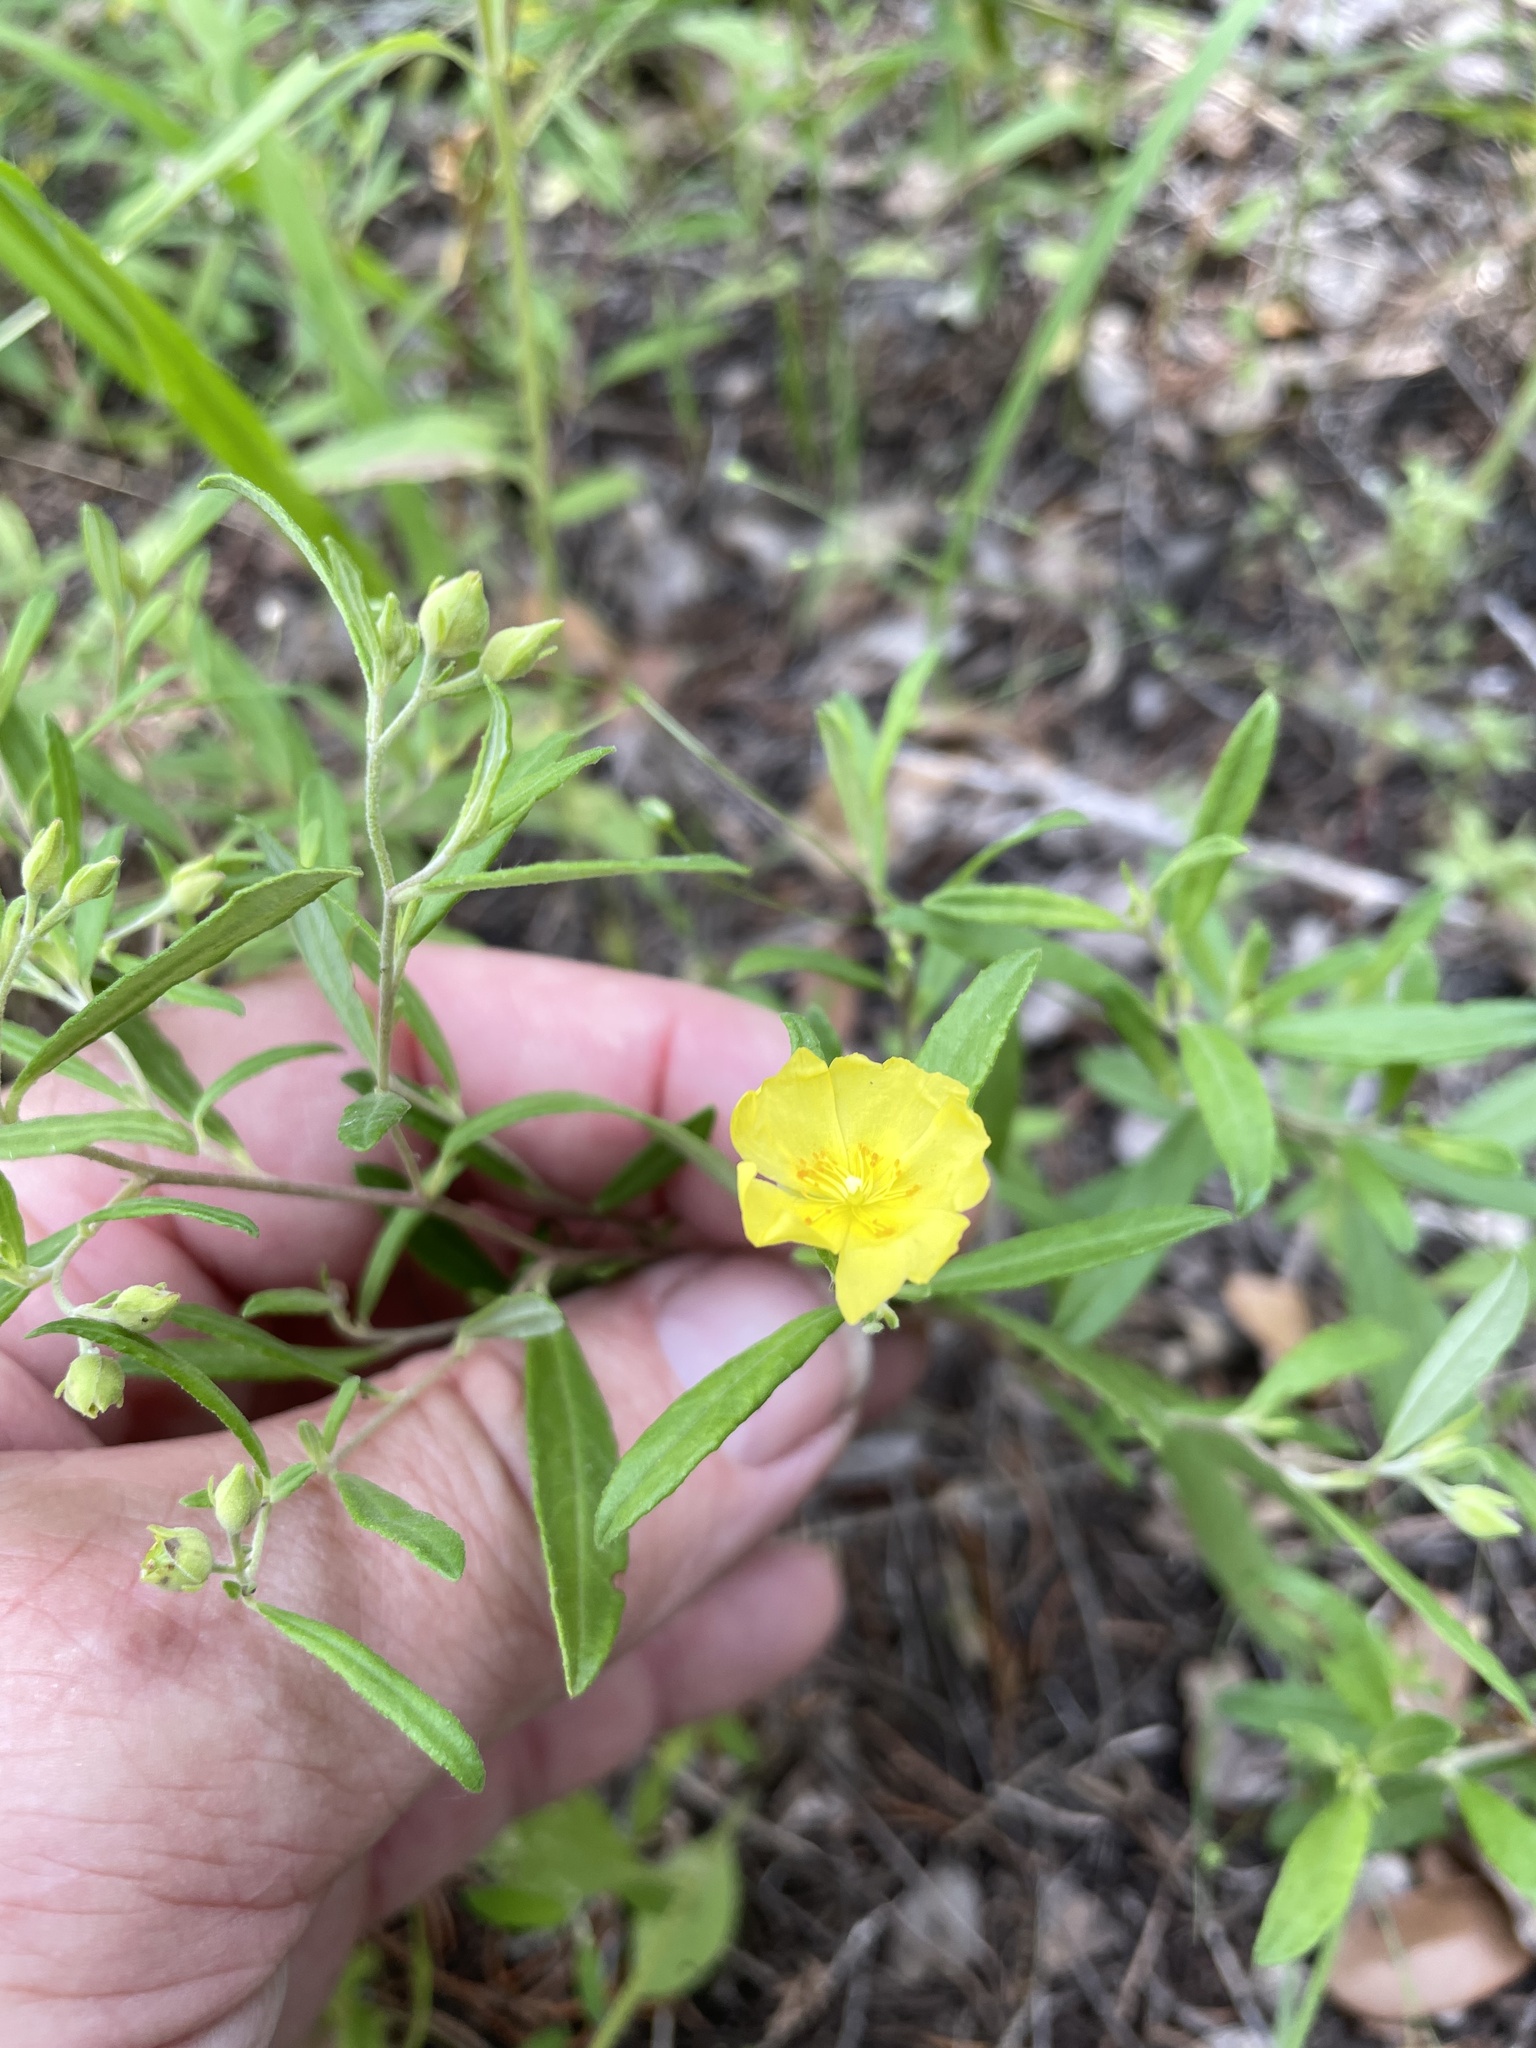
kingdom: Plantae
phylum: Tracheophyta
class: Magnoliopsida
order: Malvales
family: Cistaceae
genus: Crocanthemum
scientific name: Crocanthemum georgianum
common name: Georgia frostweed
